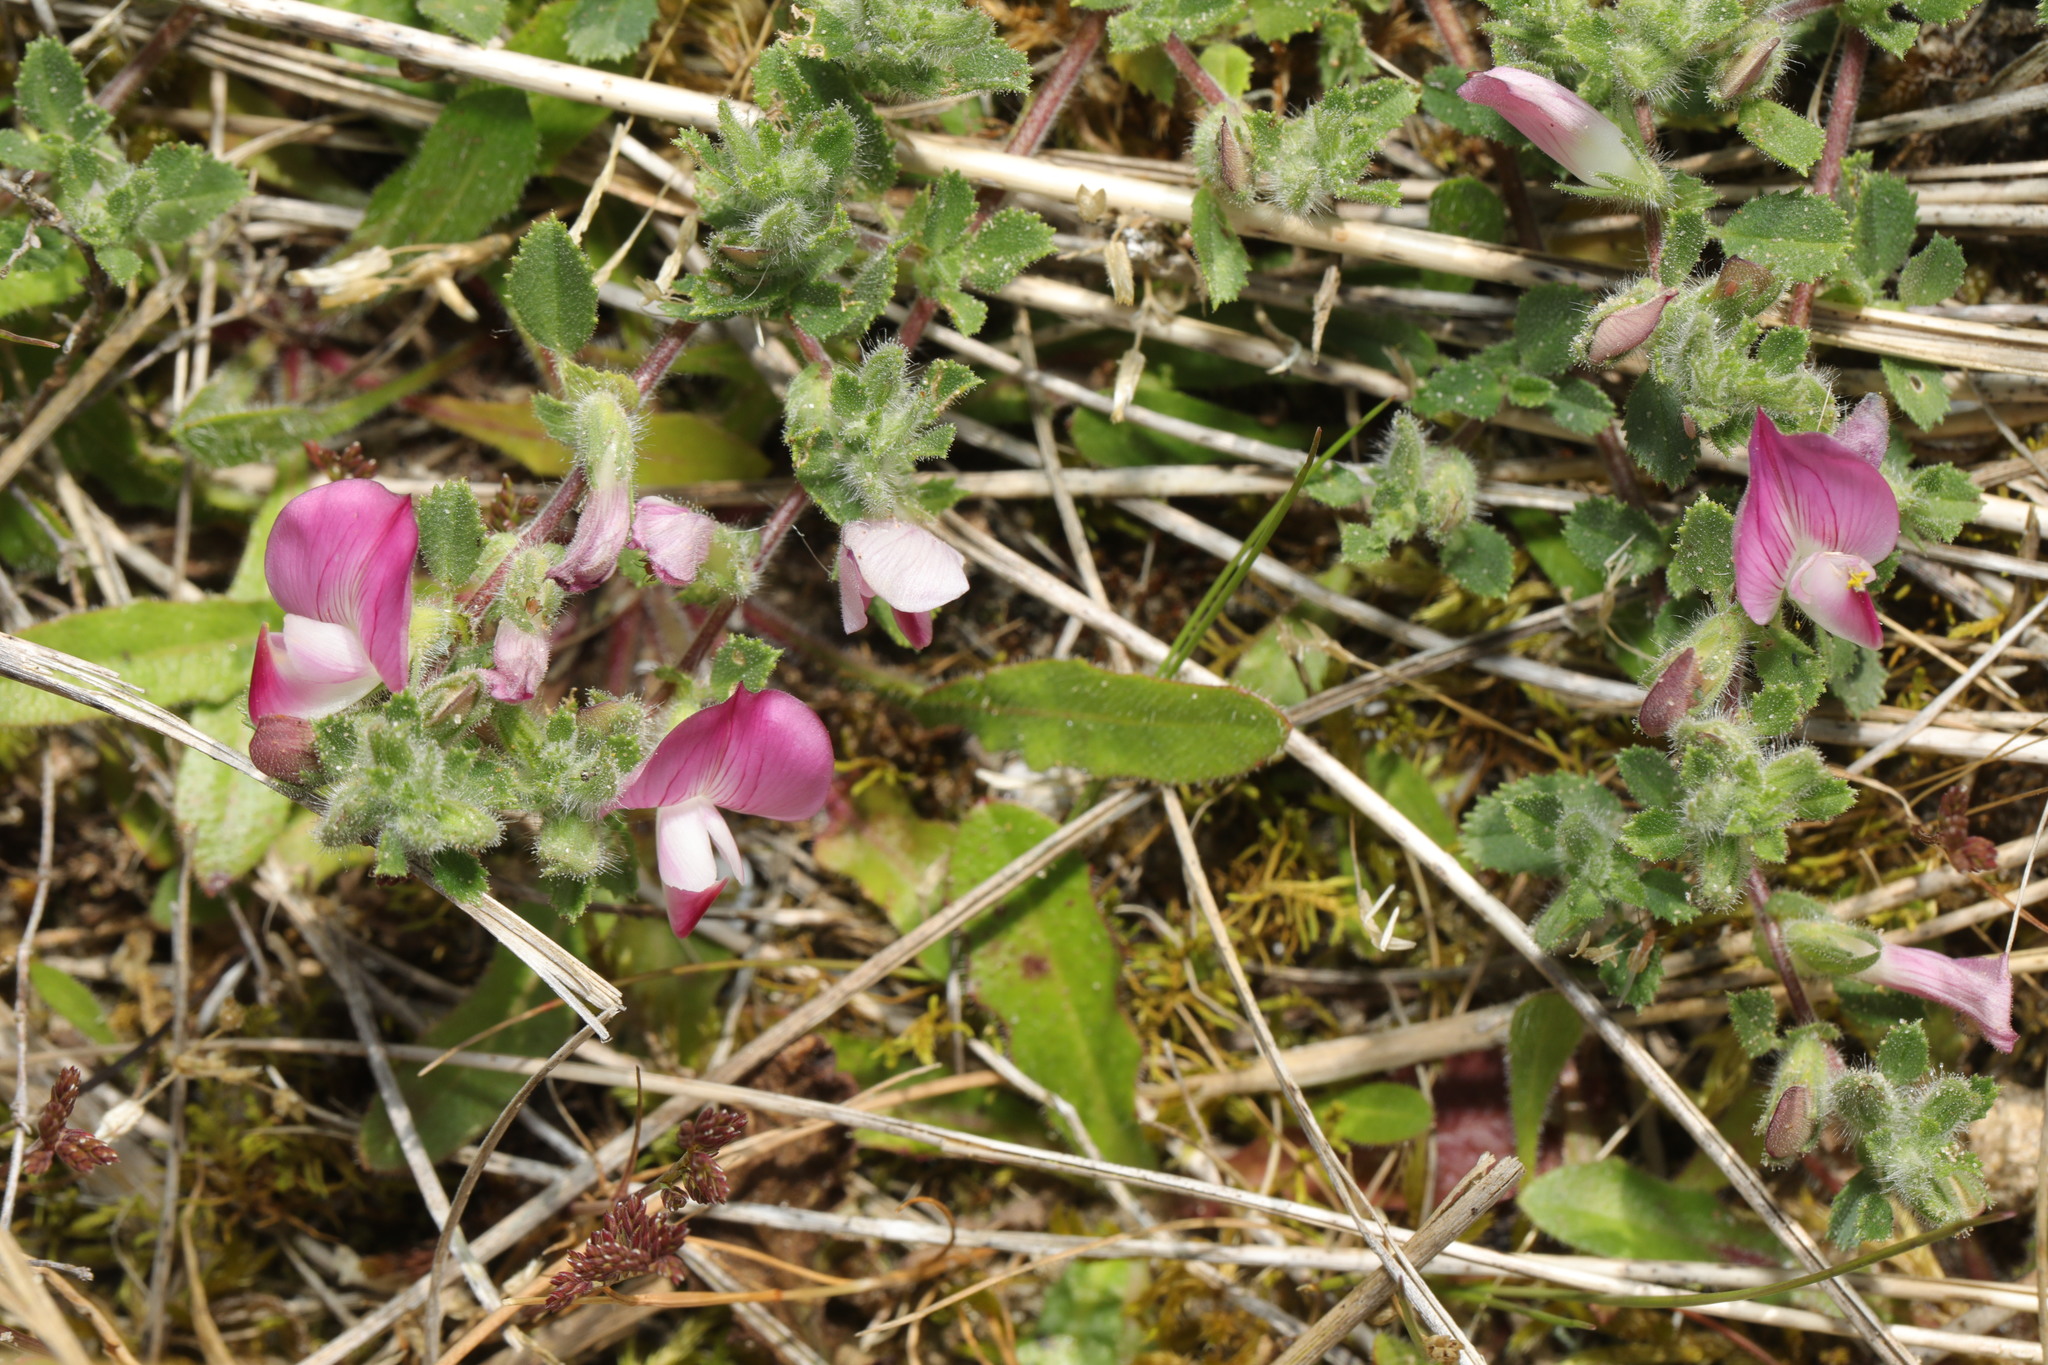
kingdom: Plantae
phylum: Tracheophyta
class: Magnoliopsida
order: Fabales
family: Fabaceae
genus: Ononis
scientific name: Ononis spinosa
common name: Spiny restharrow
